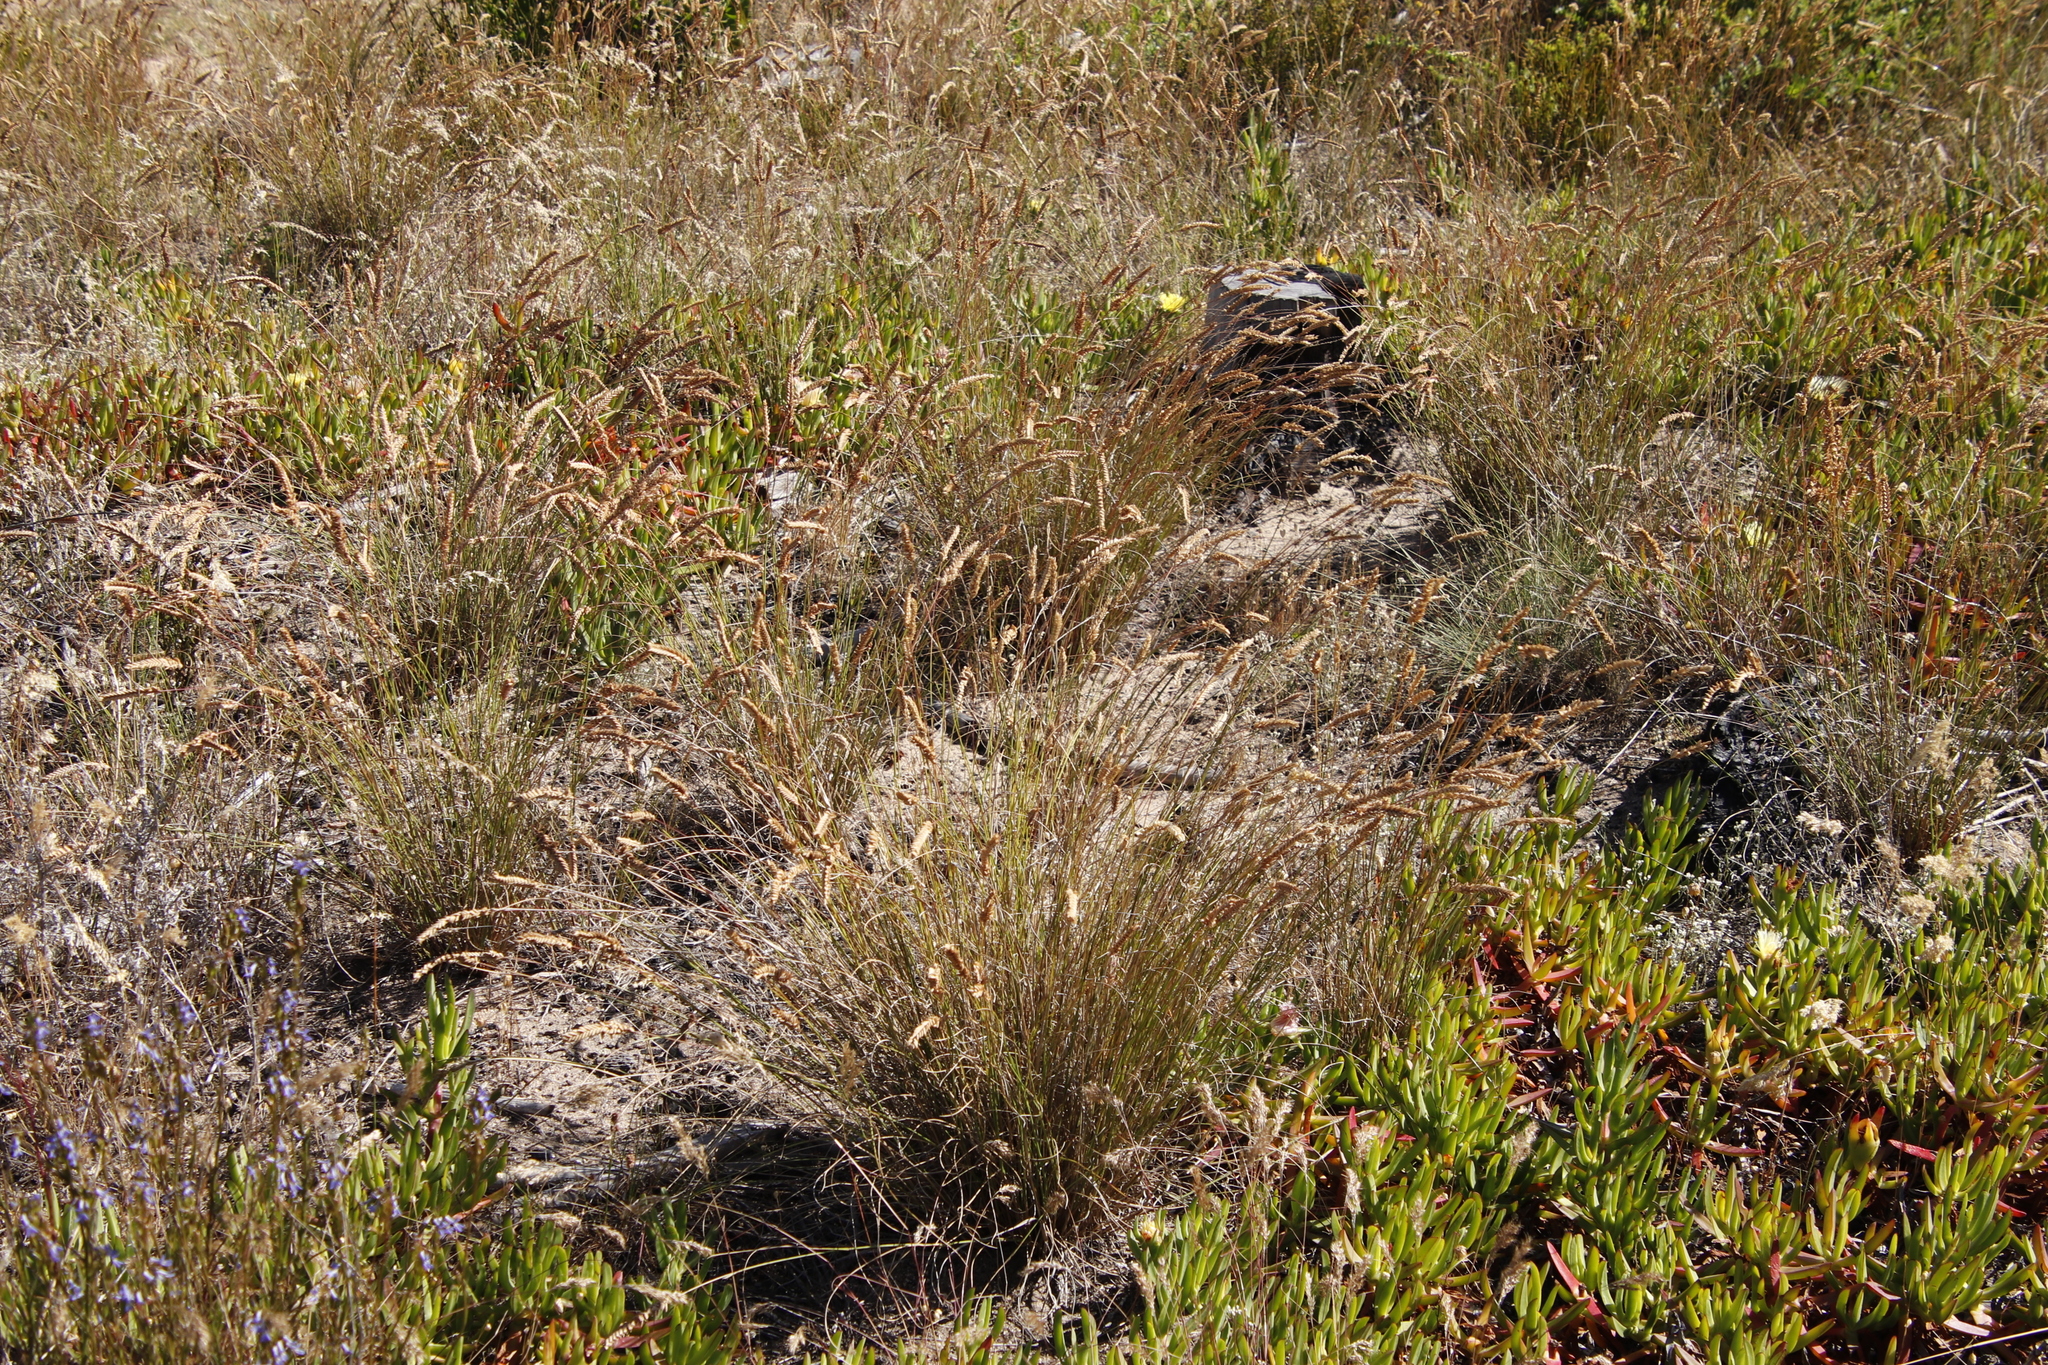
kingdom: Plantae
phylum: Tracheophyta
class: Liliopsida
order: Poales
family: Poaceae
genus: Tribolium
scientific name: Tribolium uniolae
